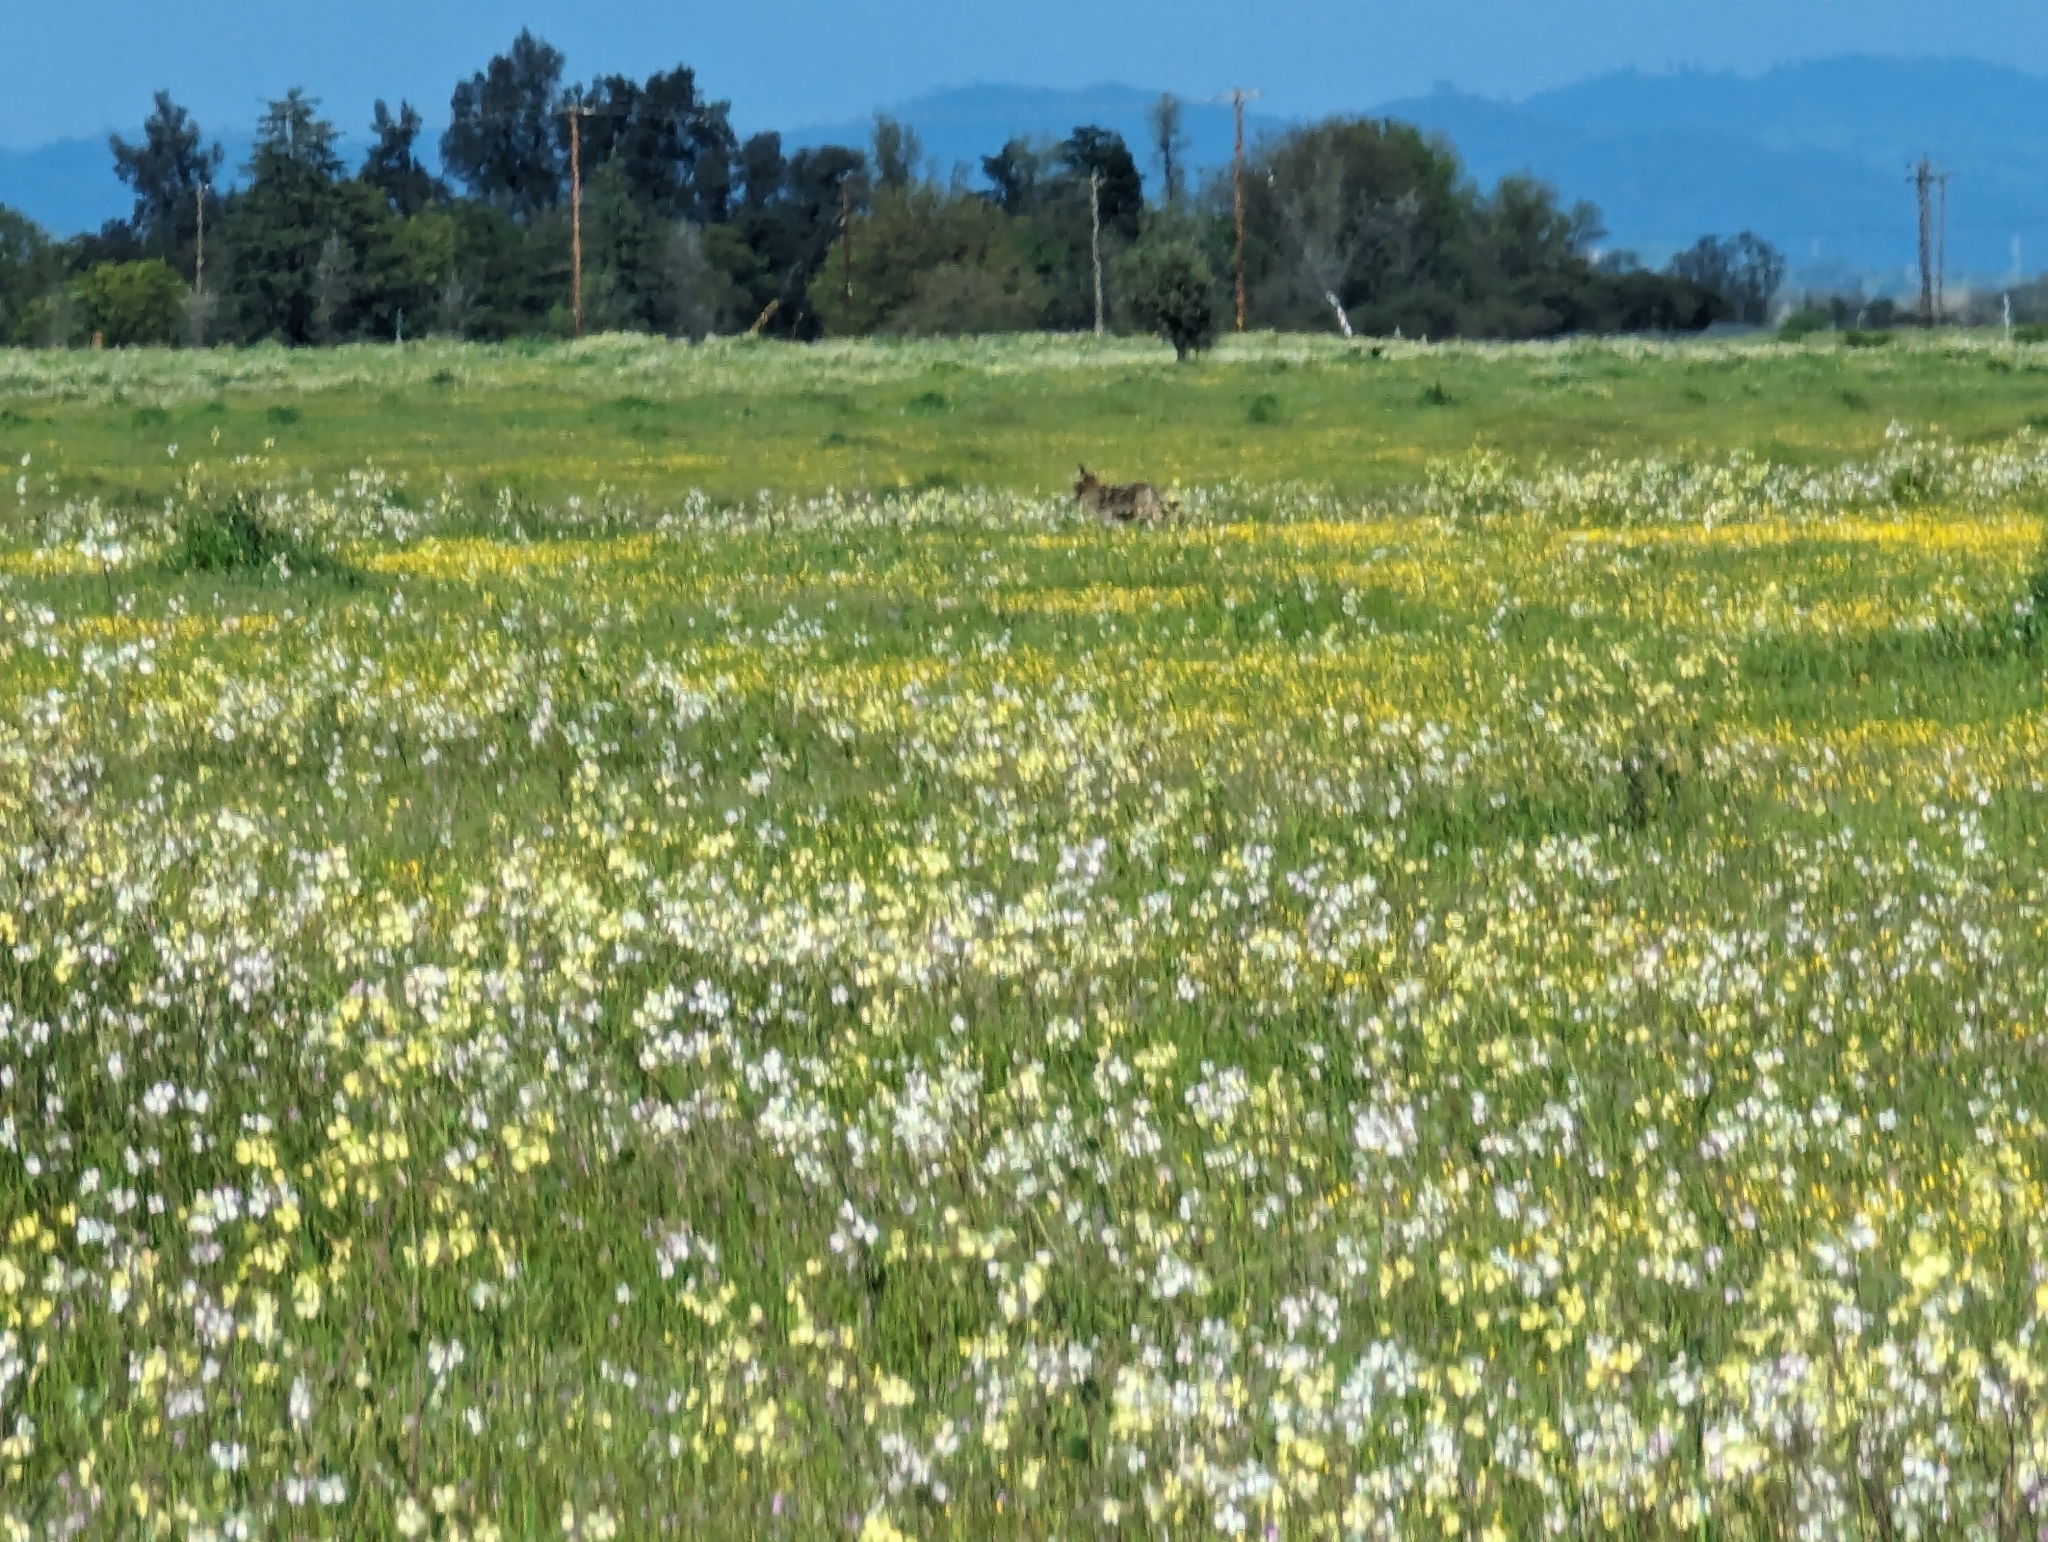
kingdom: Animalia
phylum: Chordata
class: Mammalia
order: Carnivora
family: Canidae
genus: Canis
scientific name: Canis latrans
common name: Coyote
